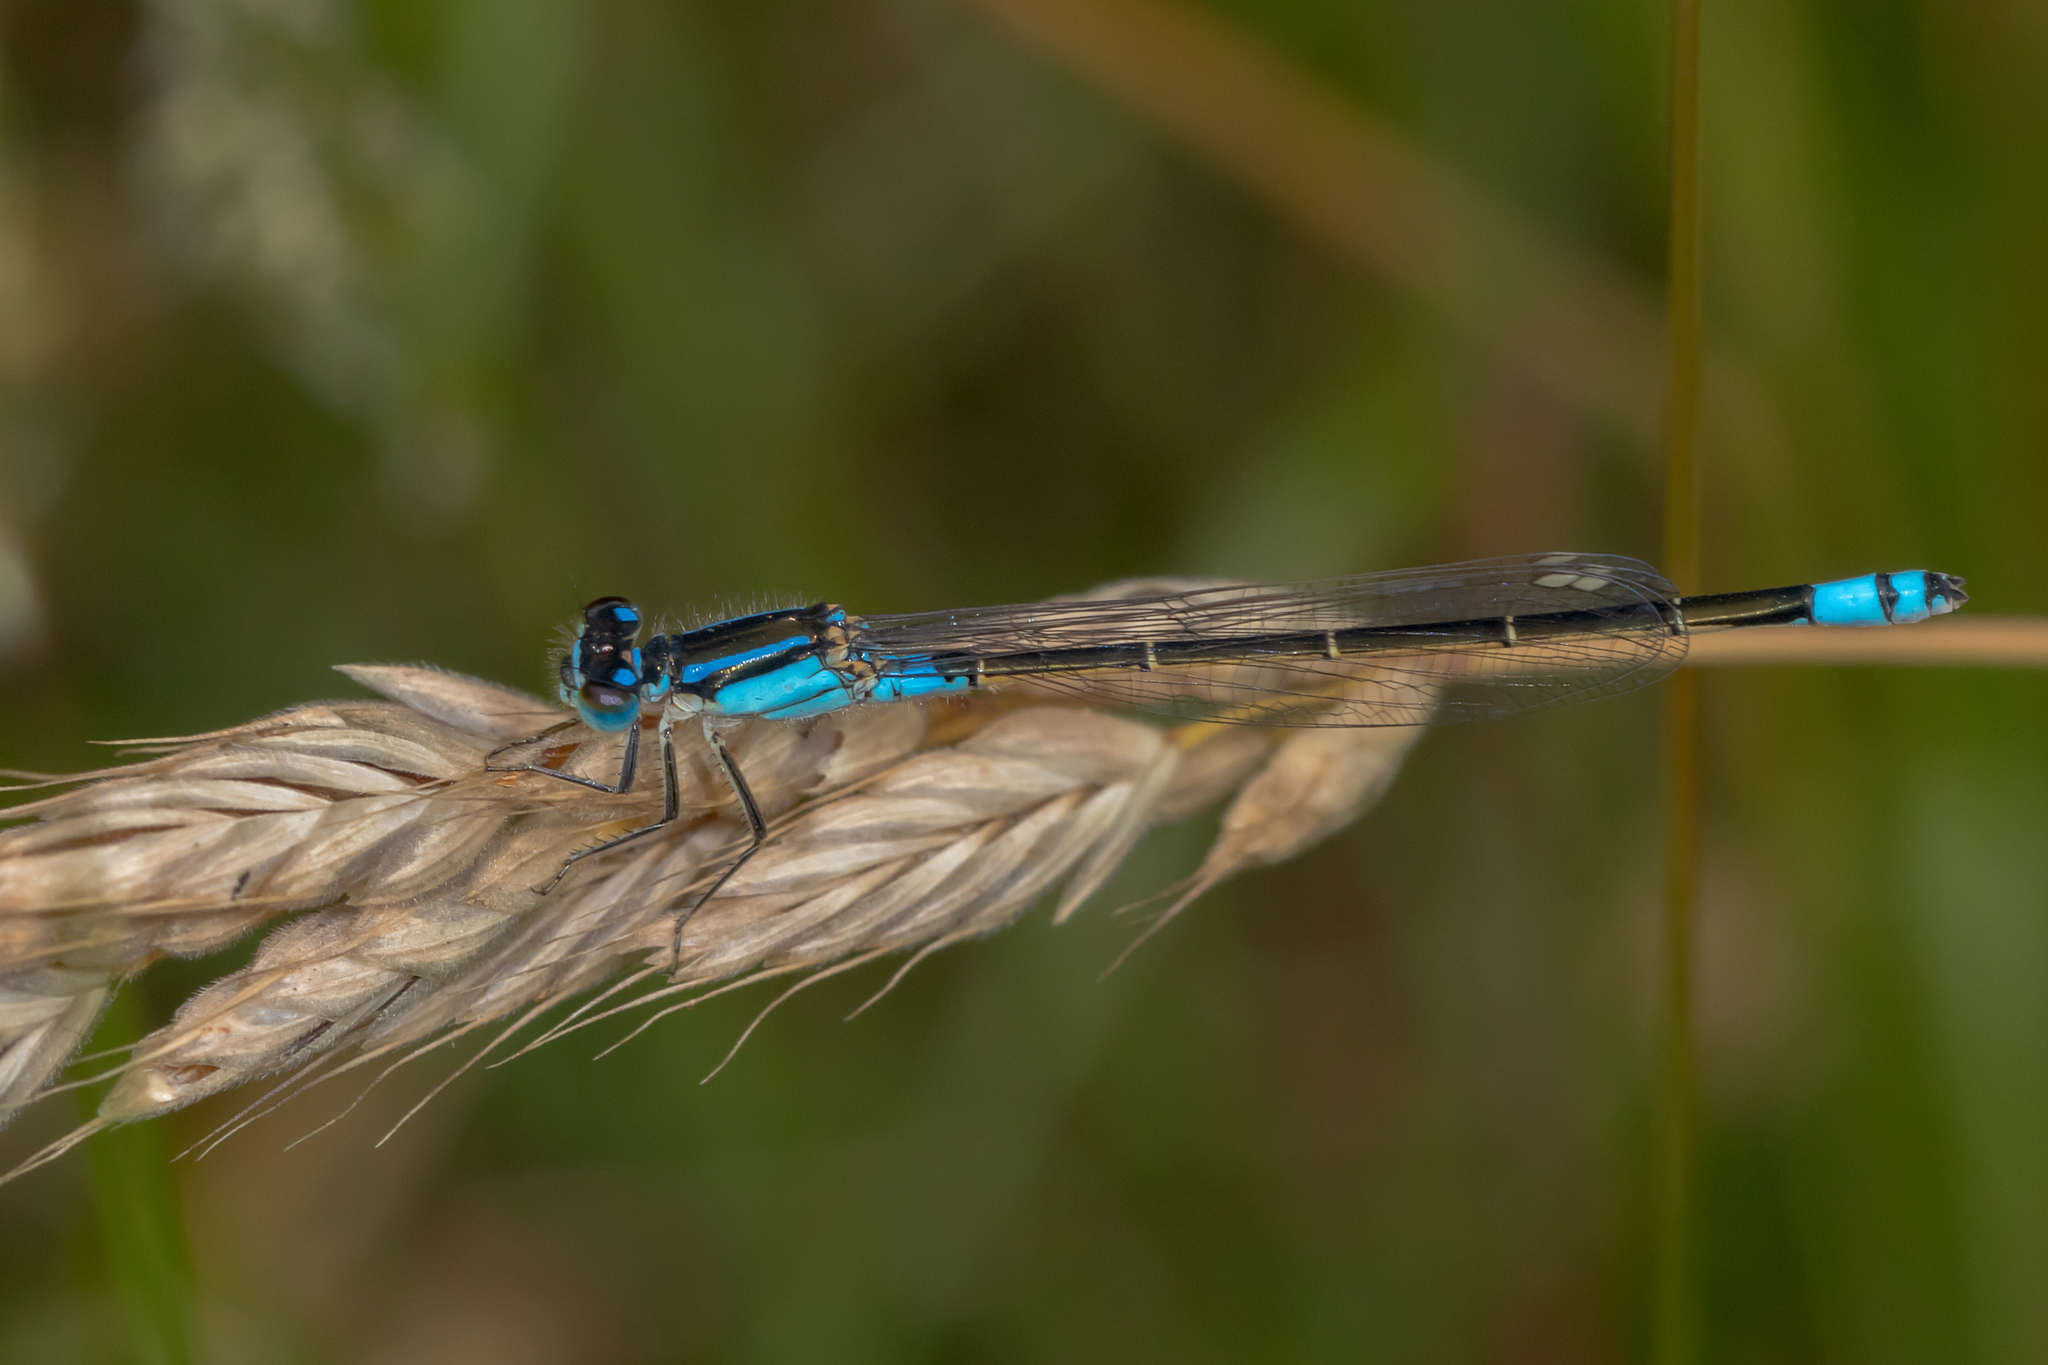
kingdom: Animalia
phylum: Arthropoda
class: Insecta
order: Odonata
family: Coenagrionidae
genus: Ischnura
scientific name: Ischnura heterosticta
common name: Common bluetail
